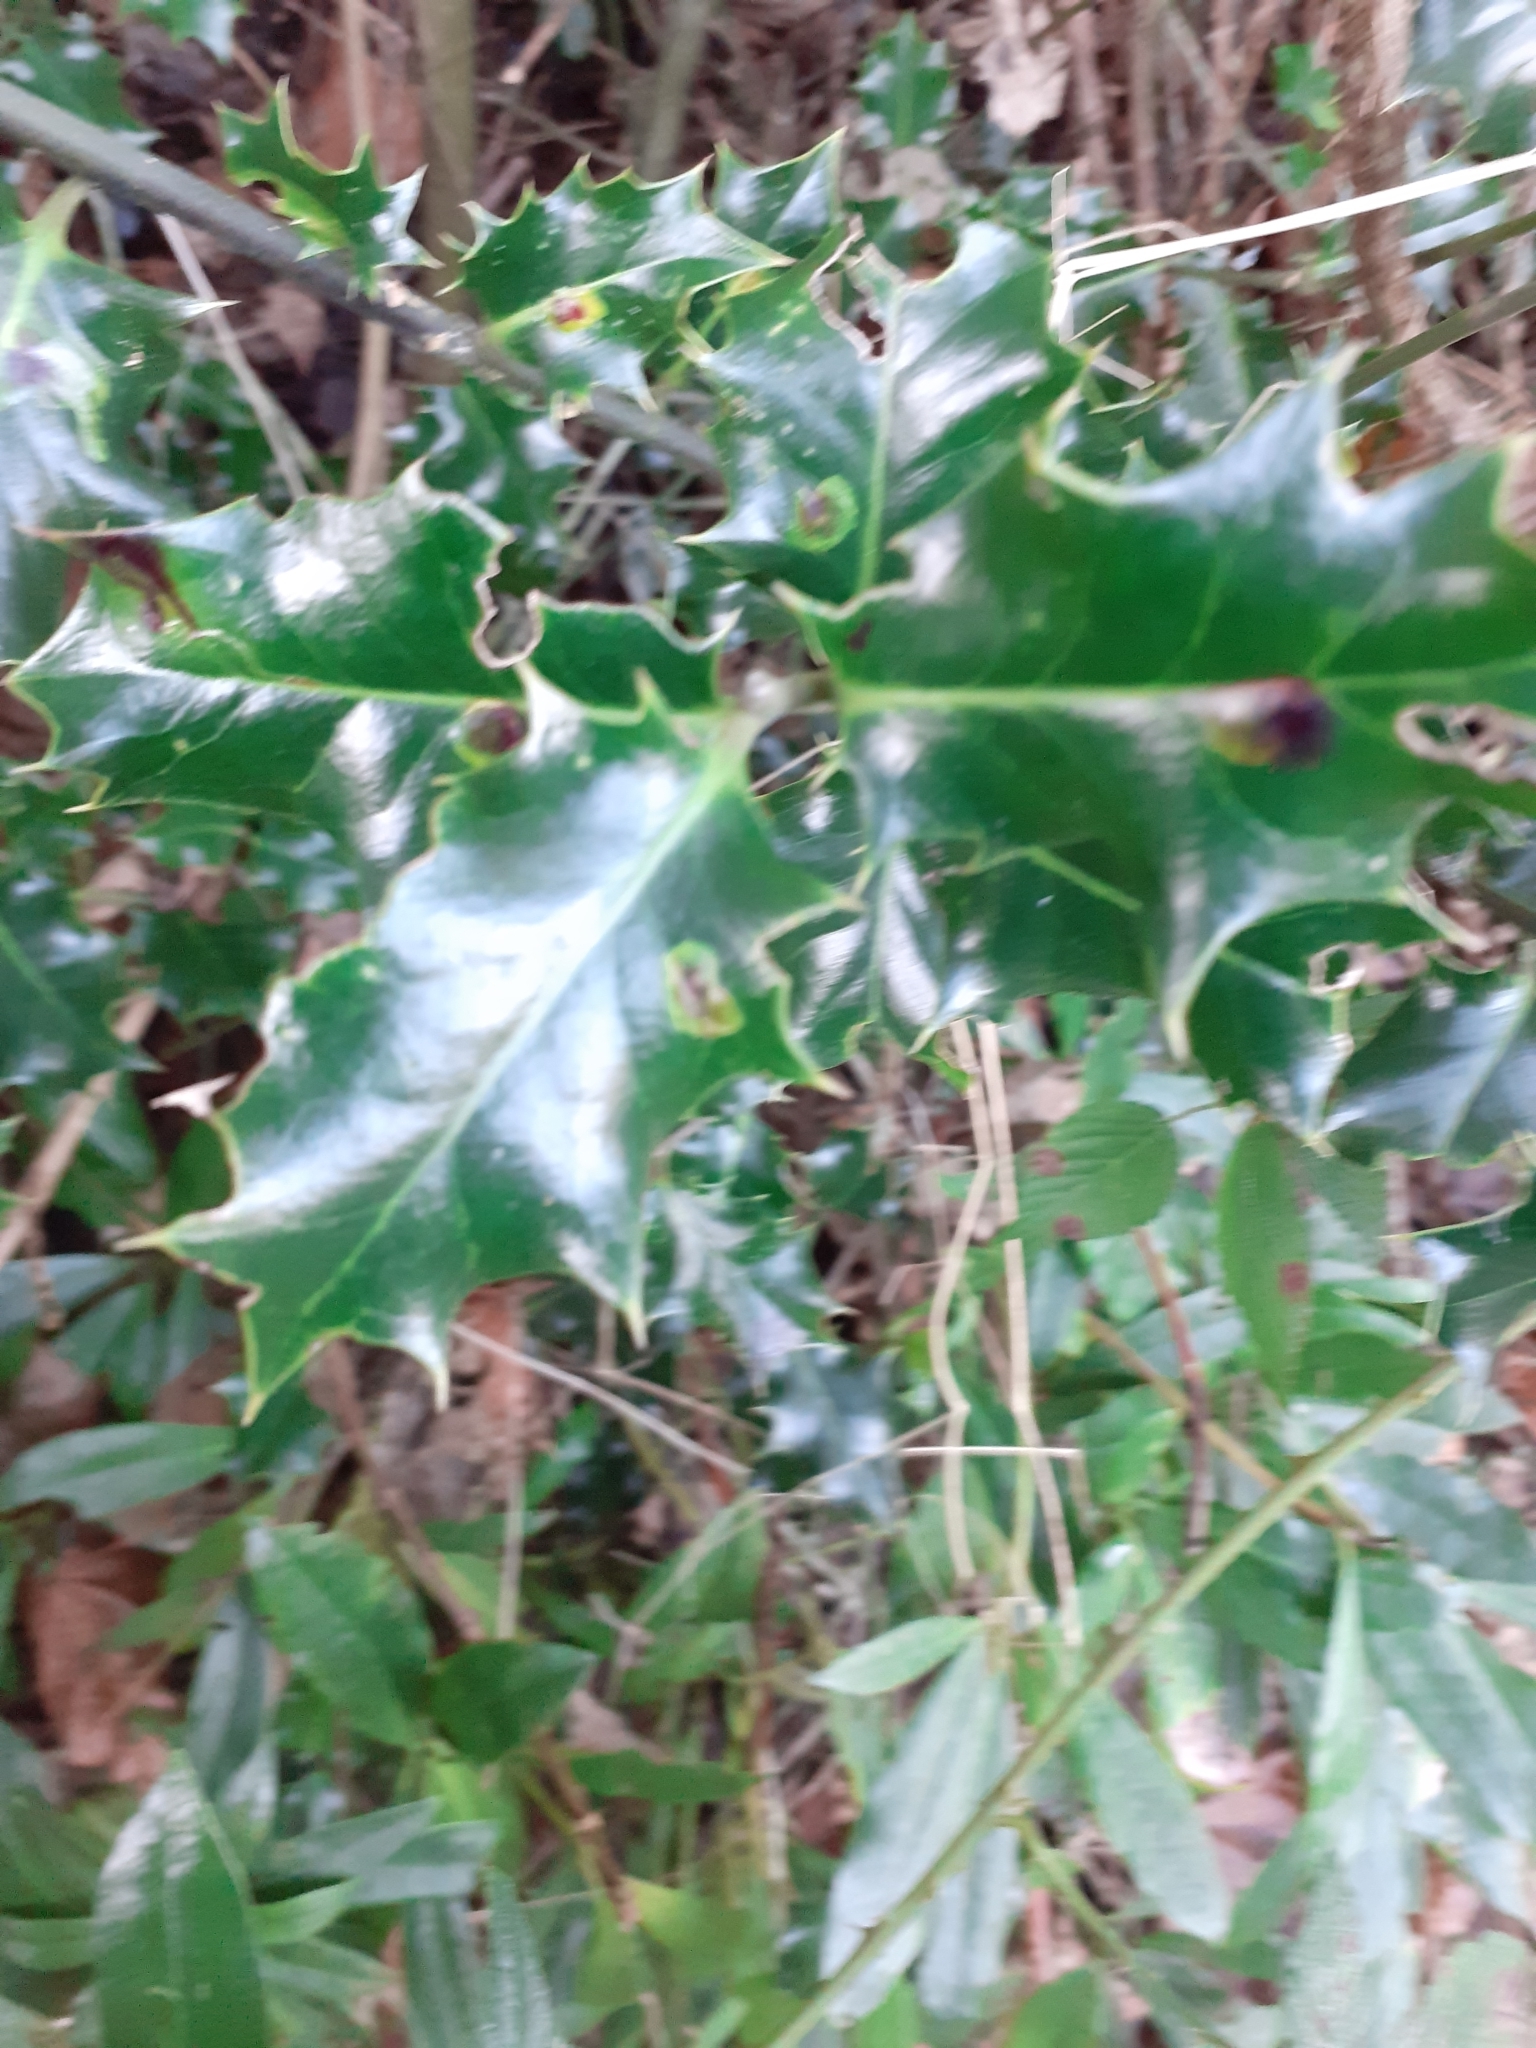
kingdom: Plantae
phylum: Tracheophyta
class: Magnoliopsida
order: Aquifoliales
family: Aquifoliaceae
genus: Ilex
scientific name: Ilex aquifolium
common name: English holly
